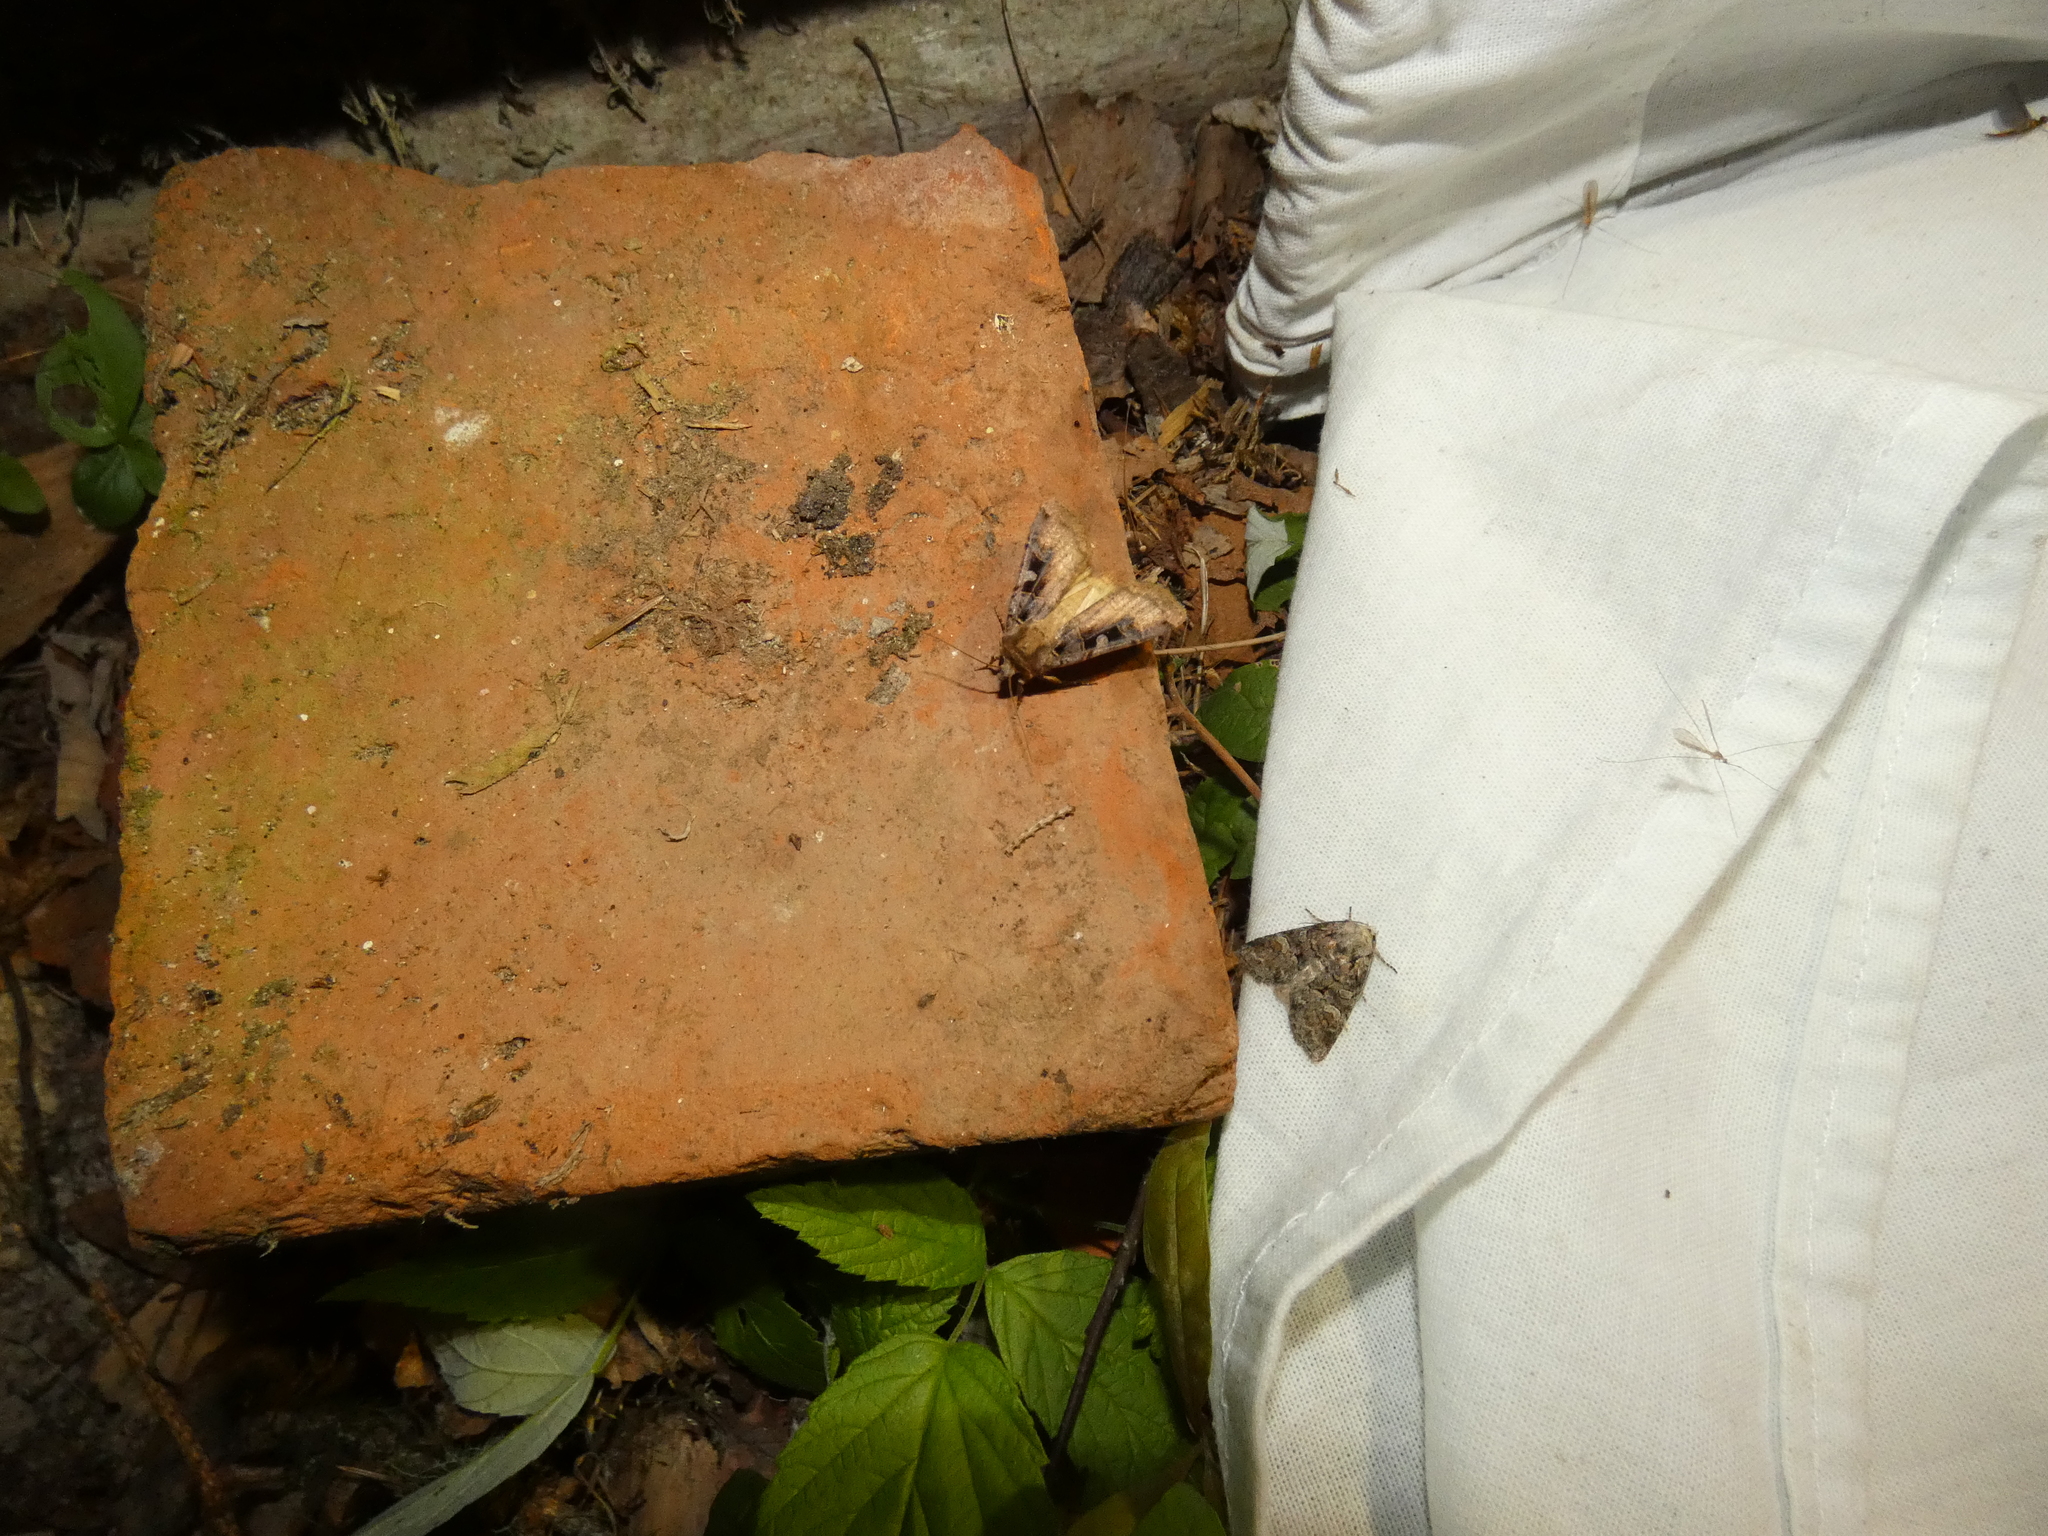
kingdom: Animalia
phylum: Arthropoda
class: Insecta
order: Lepidoptera
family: Noctuidae
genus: Brachylomia
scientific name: Brachylomia viminalis
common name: Minor shoulder-knot
